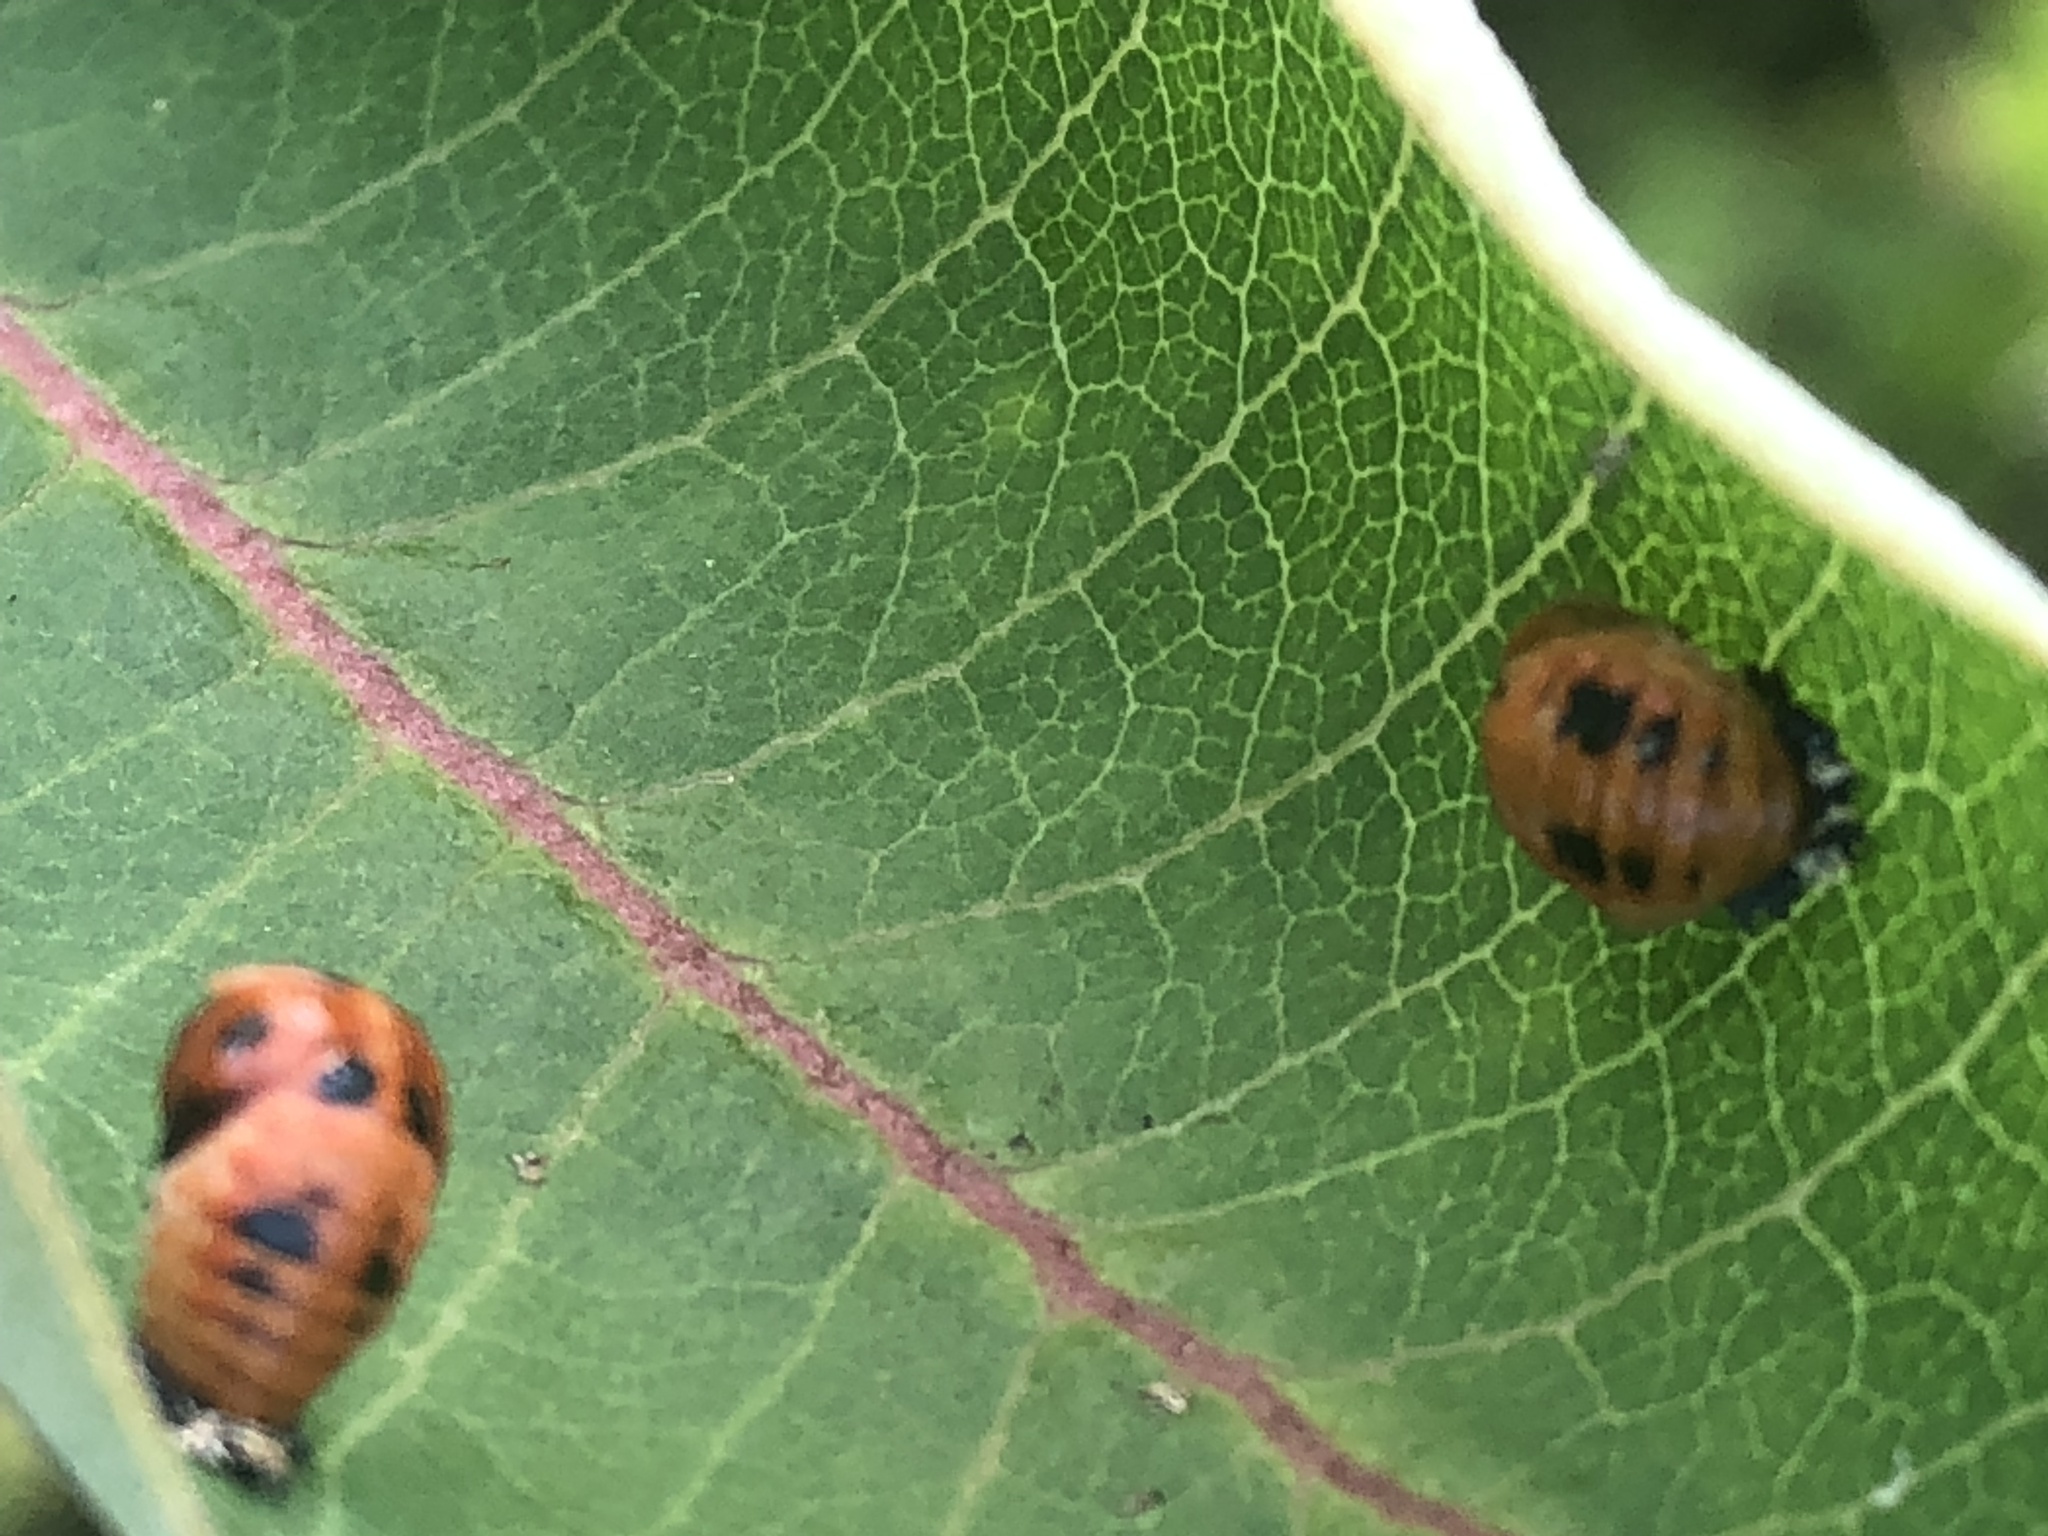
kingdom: Animalia
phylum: Arthropoda
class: Insecta
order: Coleoptera
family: Coccinellidae
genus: Harmonia
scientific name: Harmonia axyridis
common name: Harlequin ladybird
